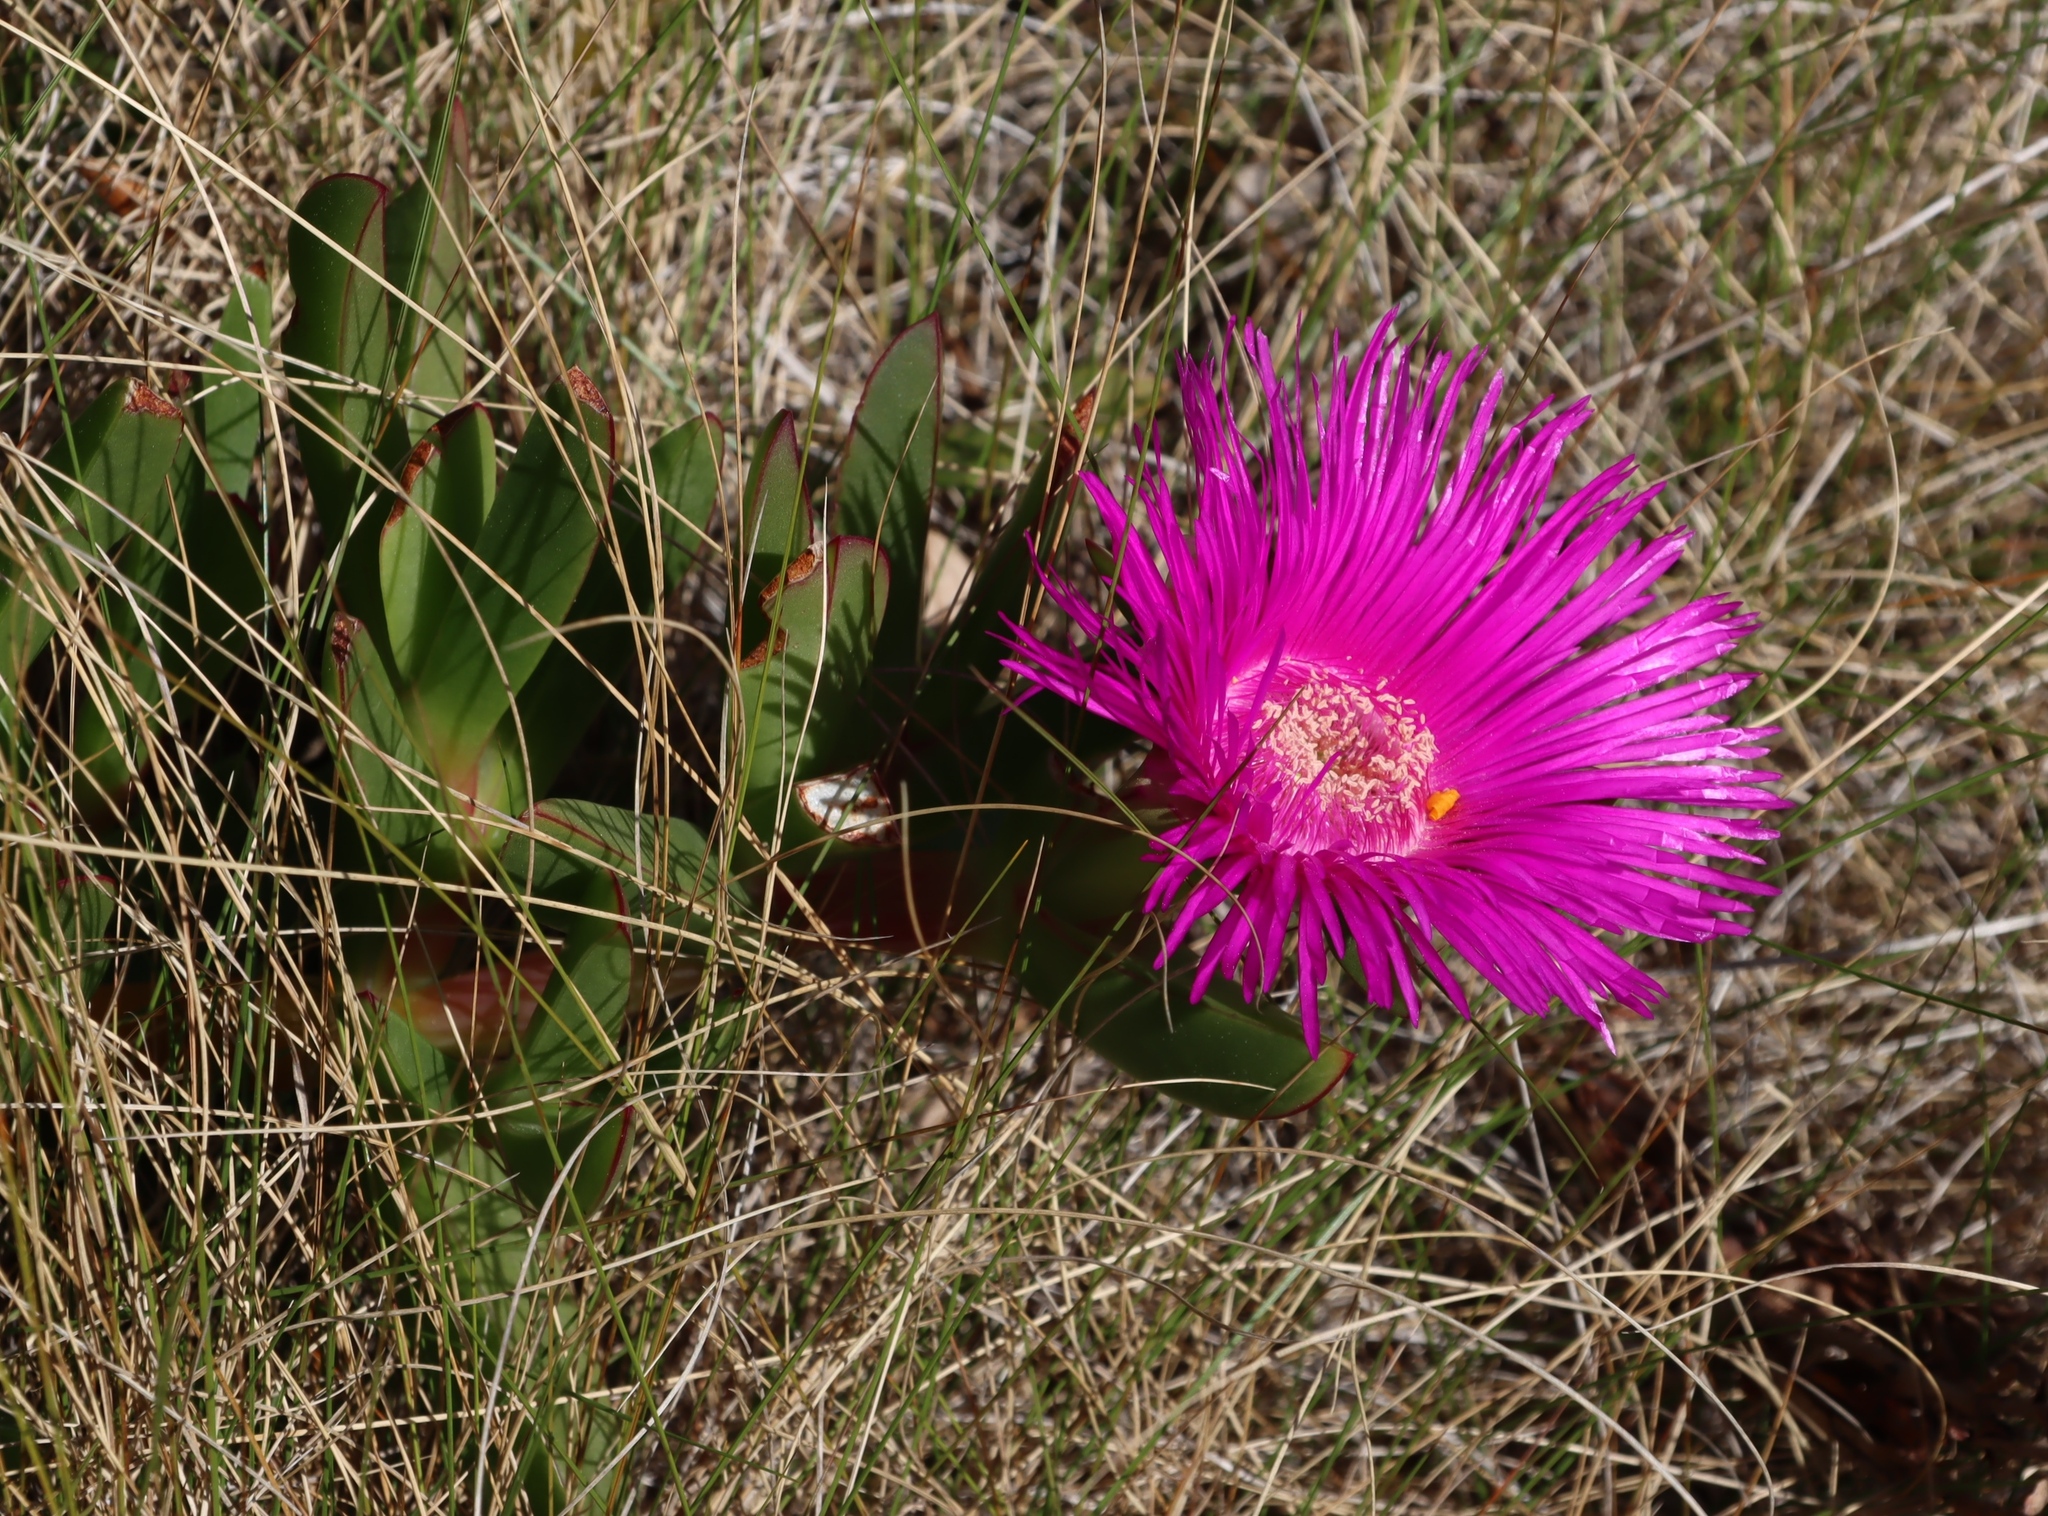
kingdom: Plantae
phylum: Tracheophyta
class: Magnoliopsida
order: Caryophyllales
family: Aizoaceae
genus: Carpobrotus
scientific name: Carpobrotus deliciosus
